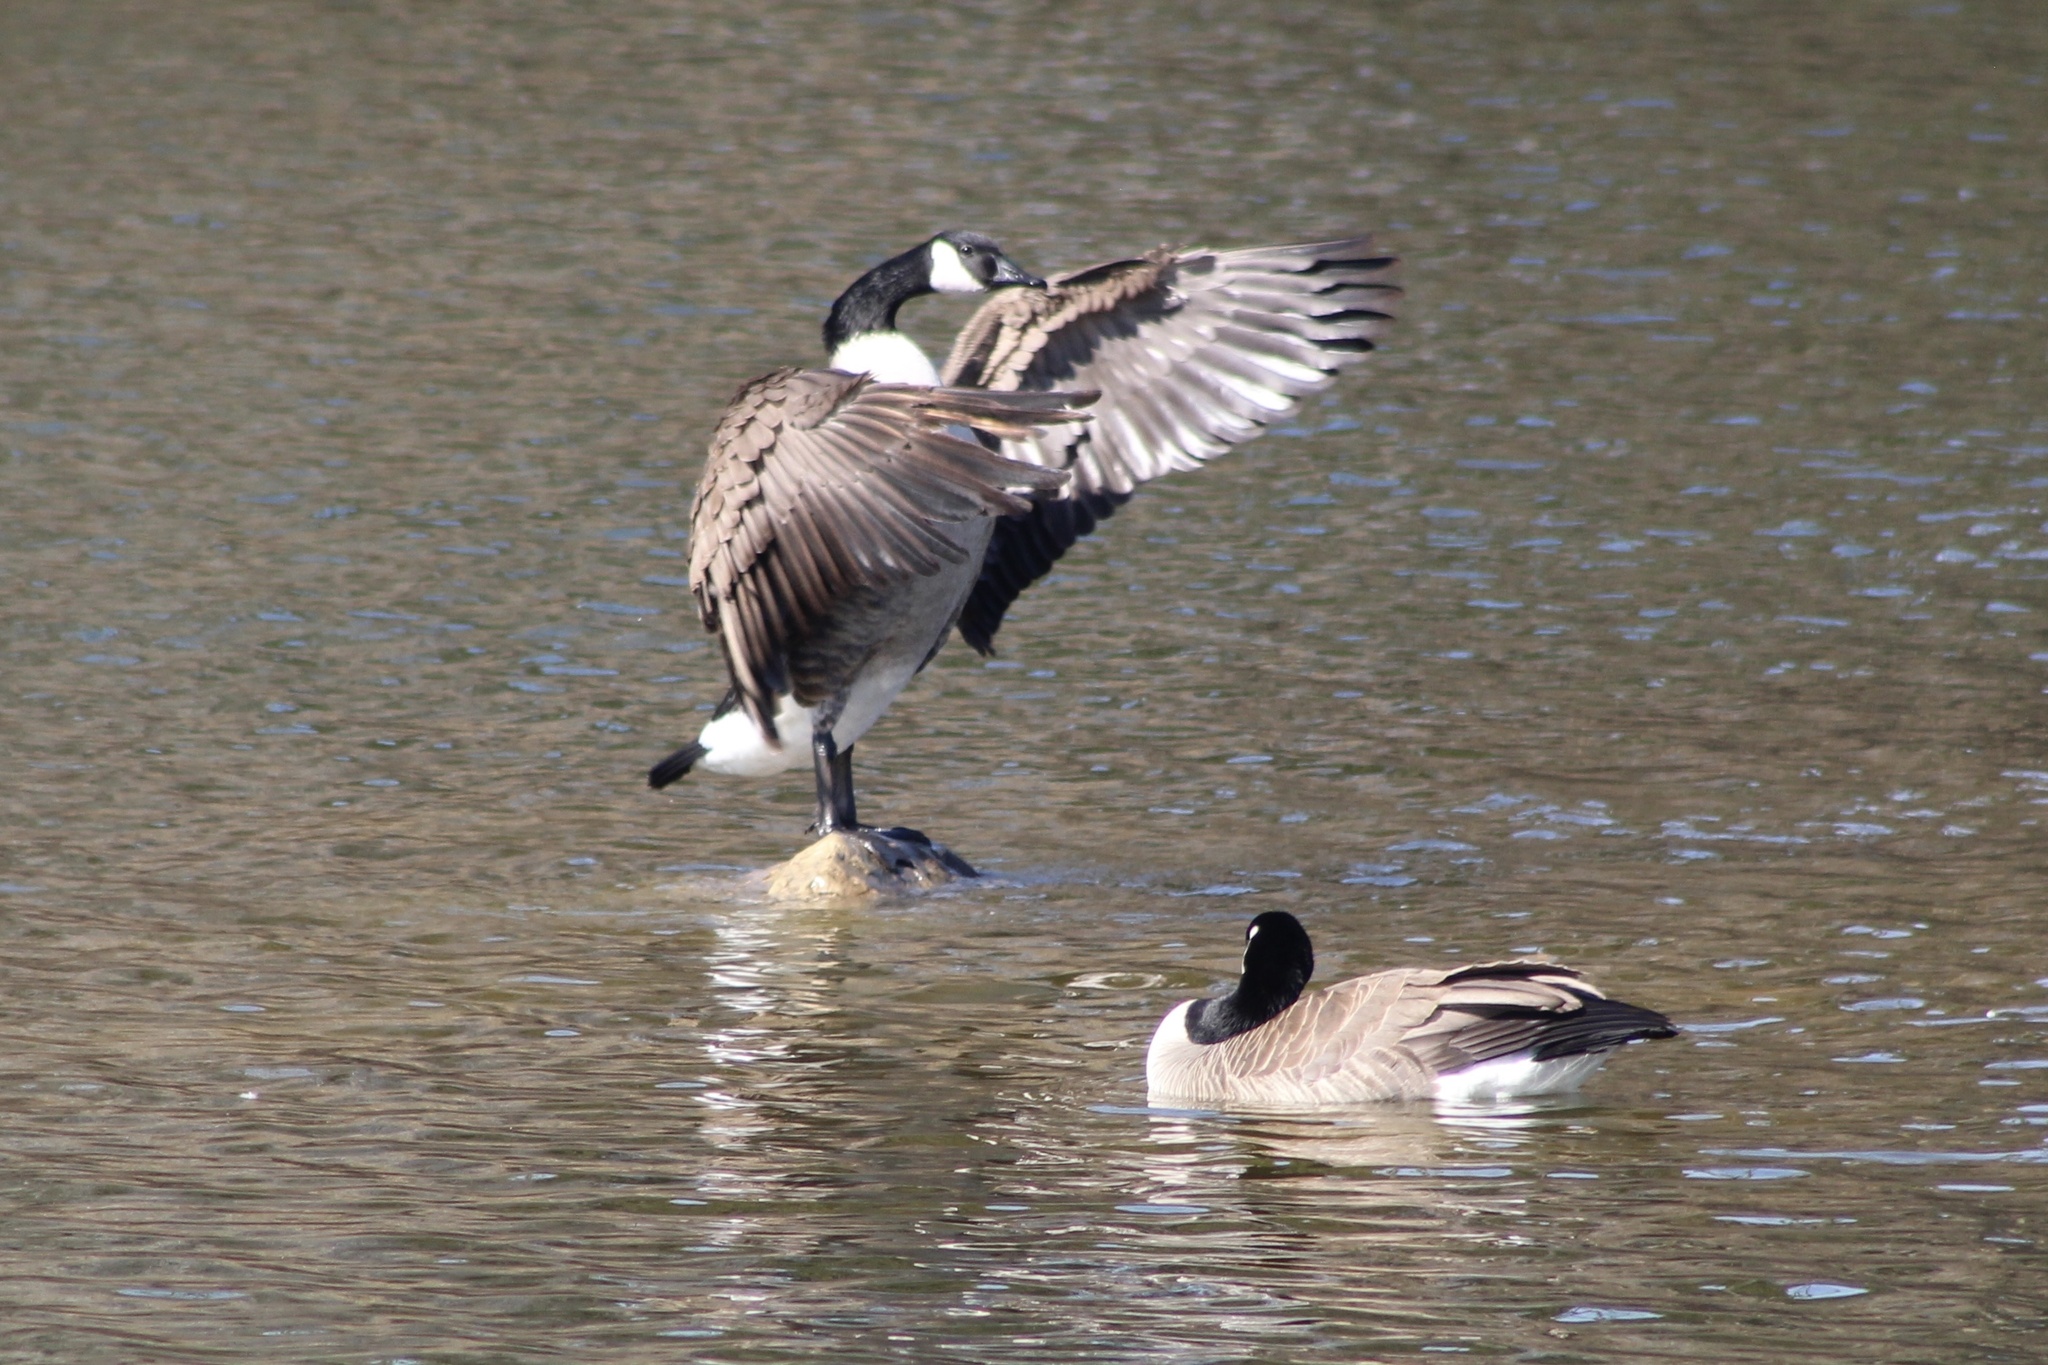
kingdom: Animalia
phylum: Chordata
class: Aves
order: Anseriformes
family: Anatidae
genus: Branta
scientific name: Branta canadensis
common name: Canada goose
